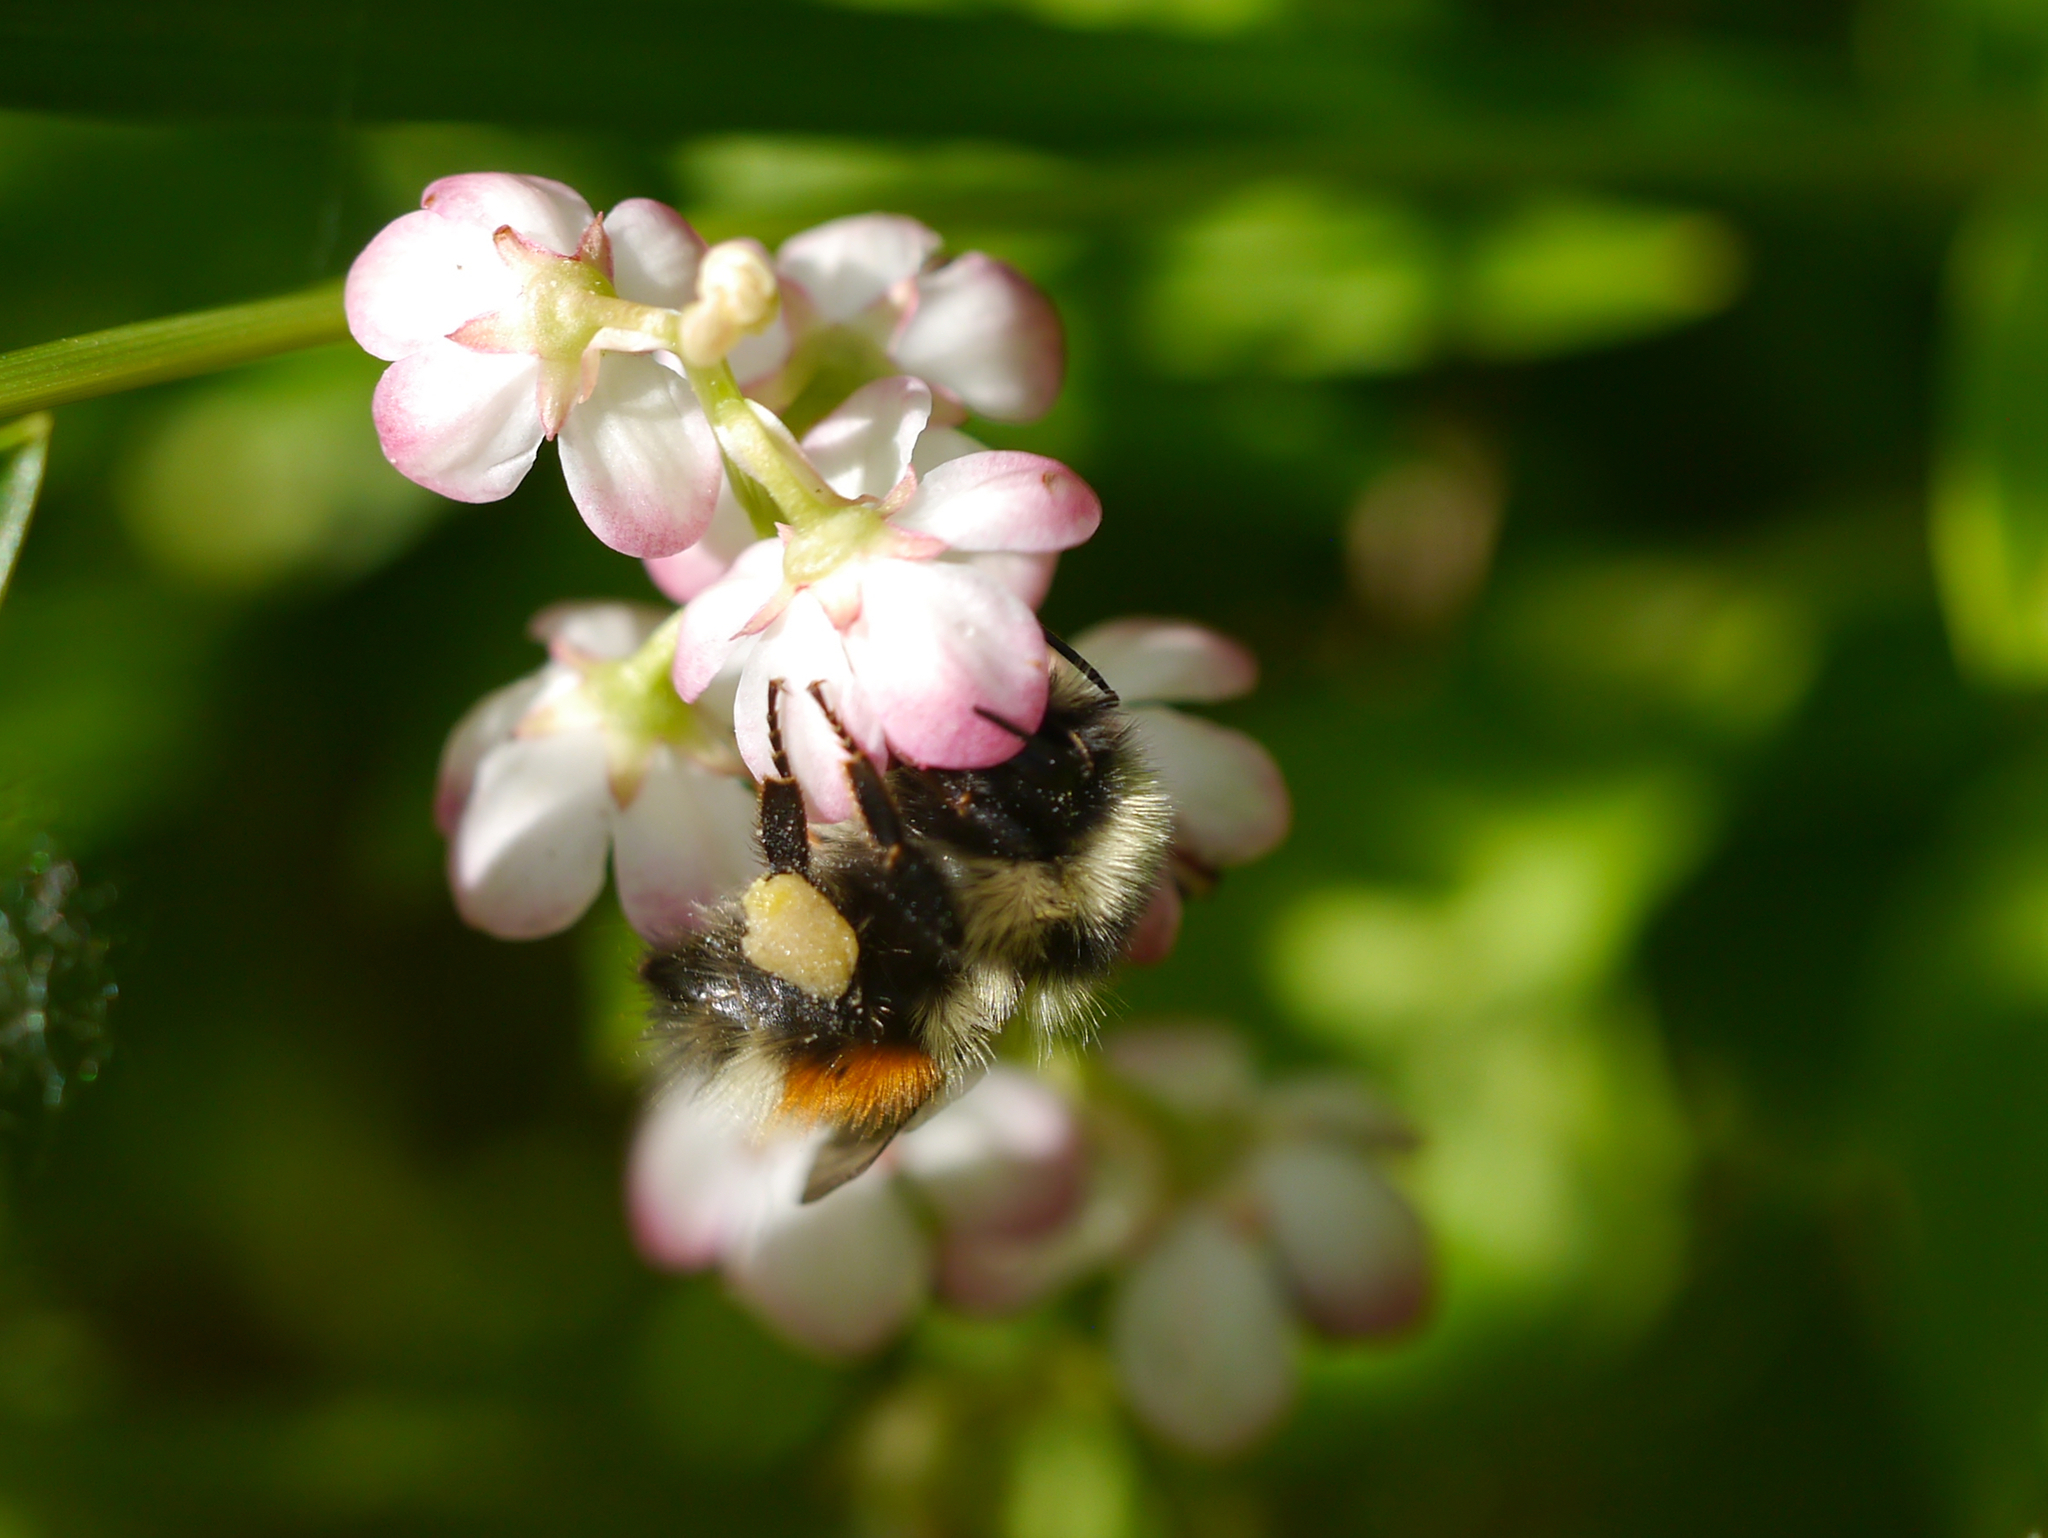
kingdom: Animalia
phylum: Arthropoda
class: Insecta
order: Hymenoptera
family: Apidae
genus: Bombus
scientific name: Bombus sylvicola
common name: Forest bumble bee
